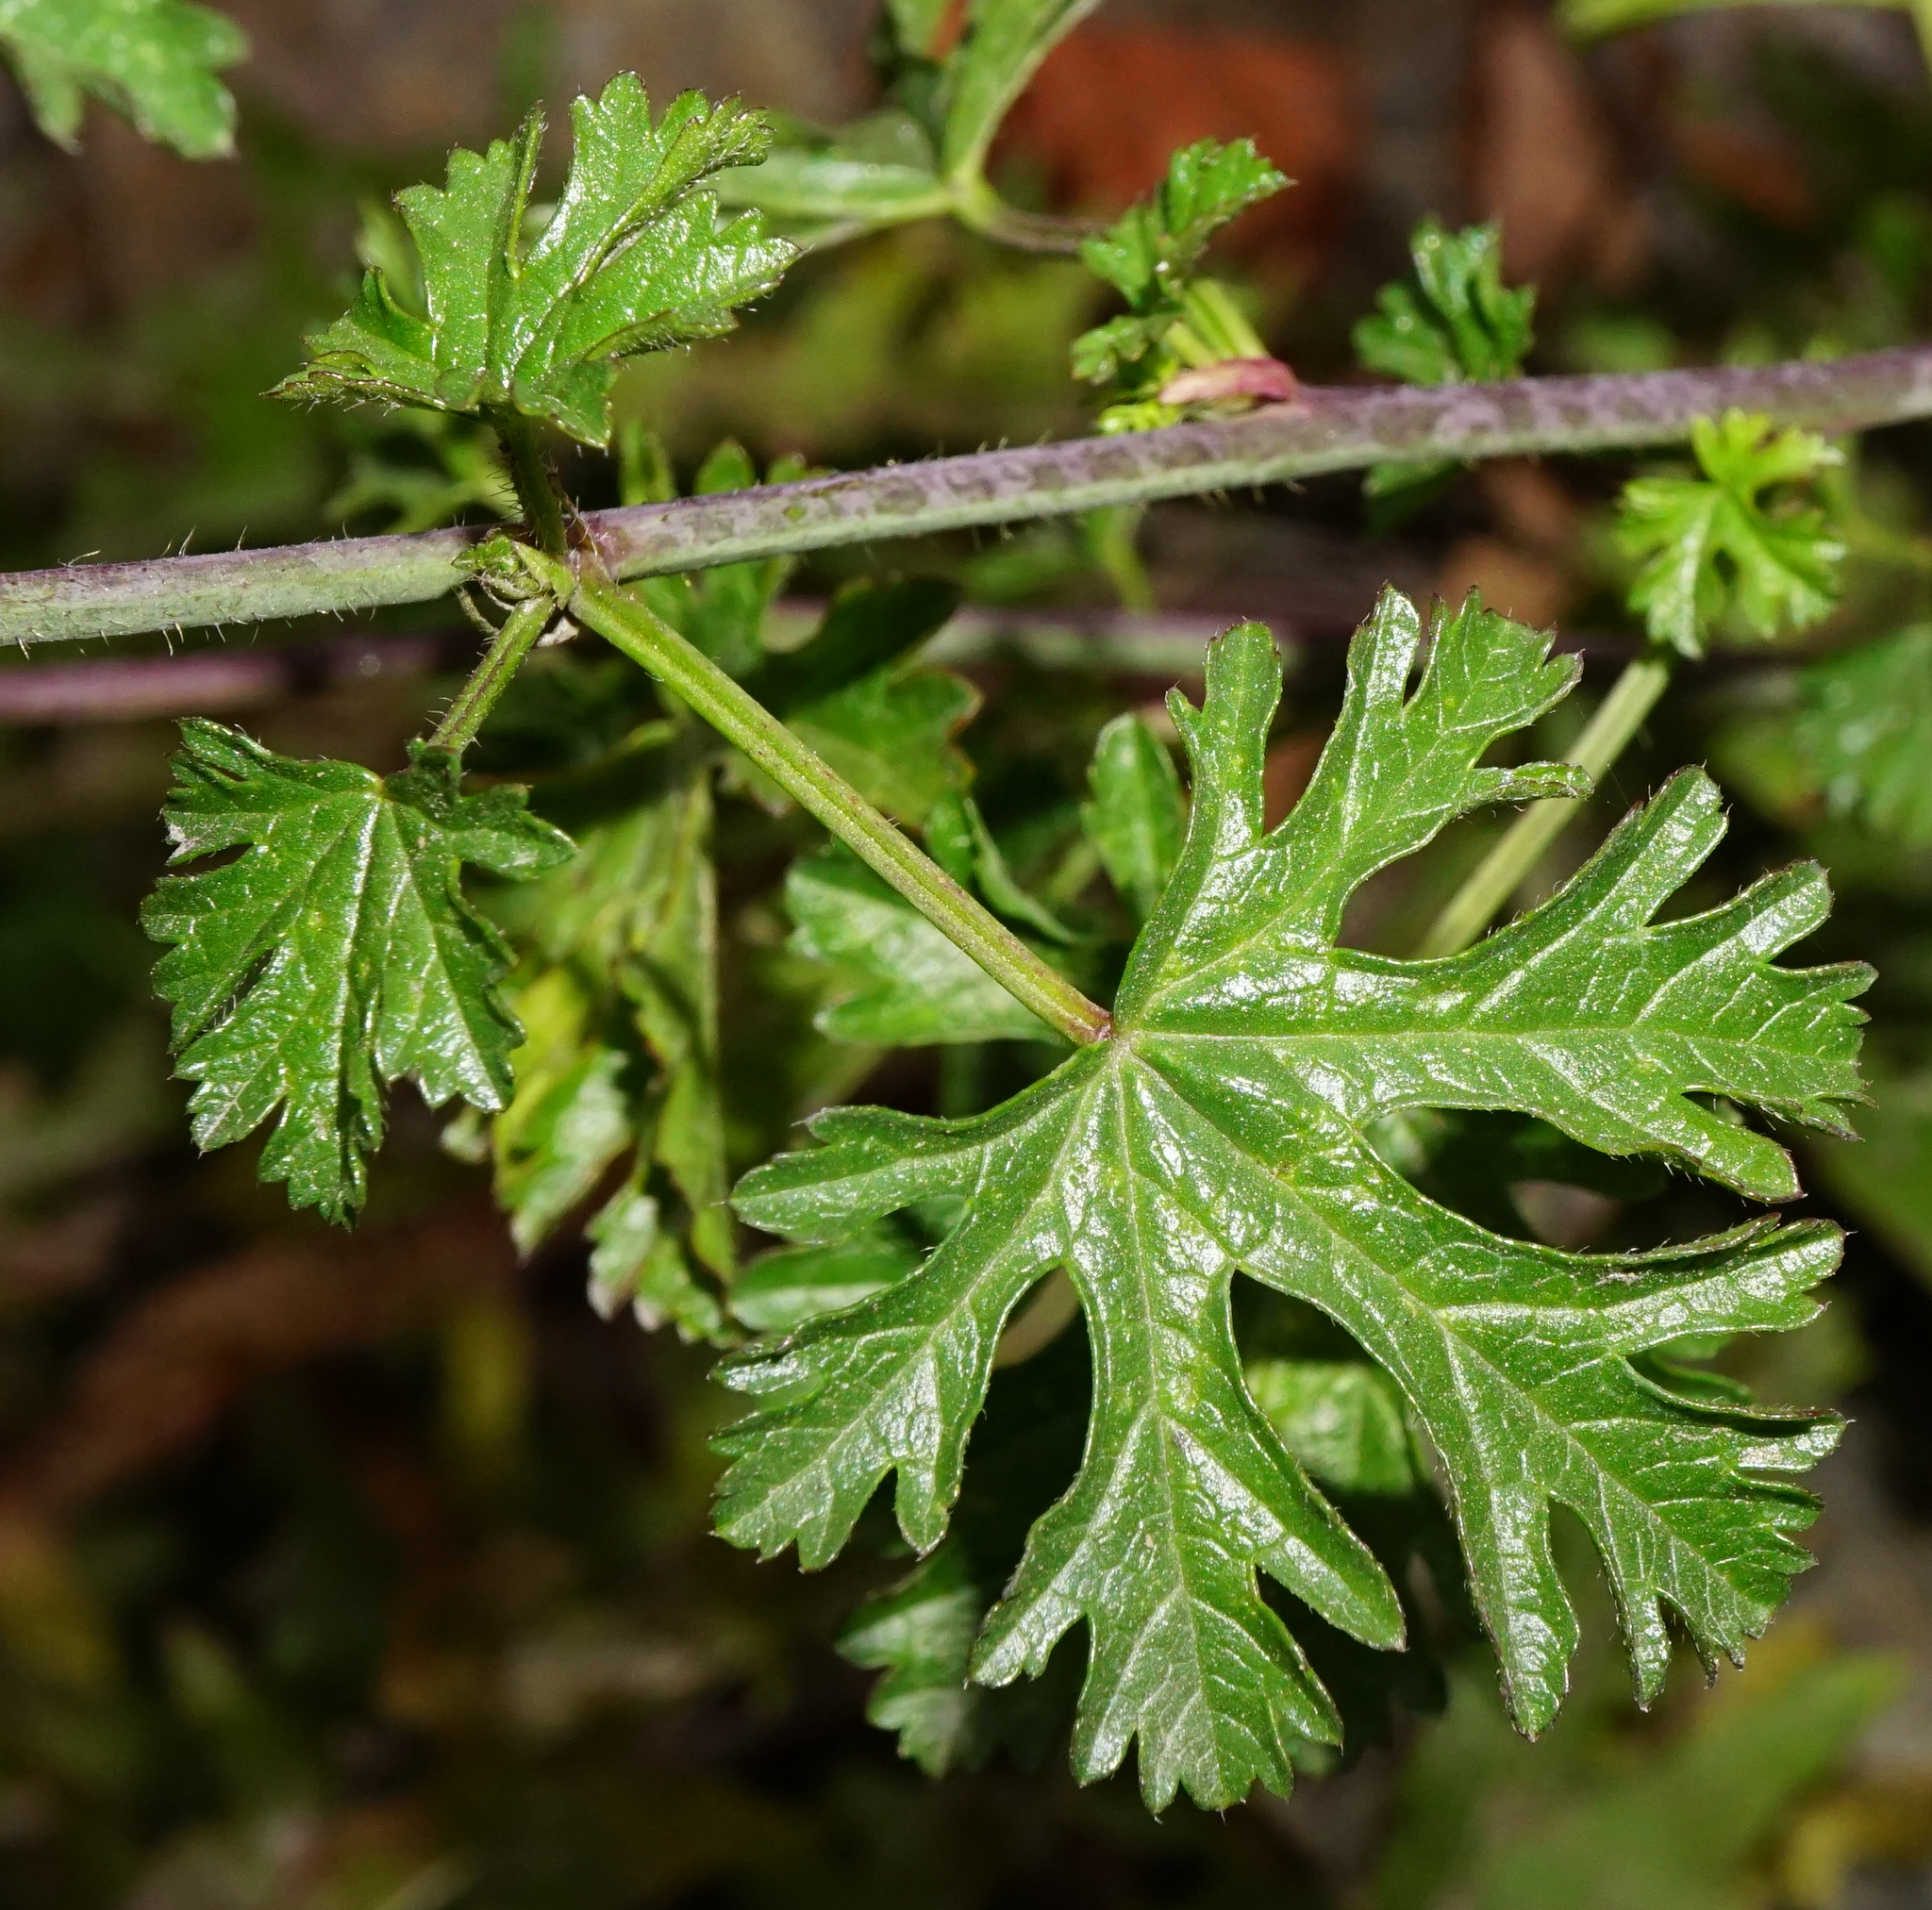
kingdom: Plantae
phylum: Tracheophyta
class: Magnoliopsida
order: Malvales
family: Malvaceae
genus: Malva
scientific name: Malva moschata
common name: Musk mallow
